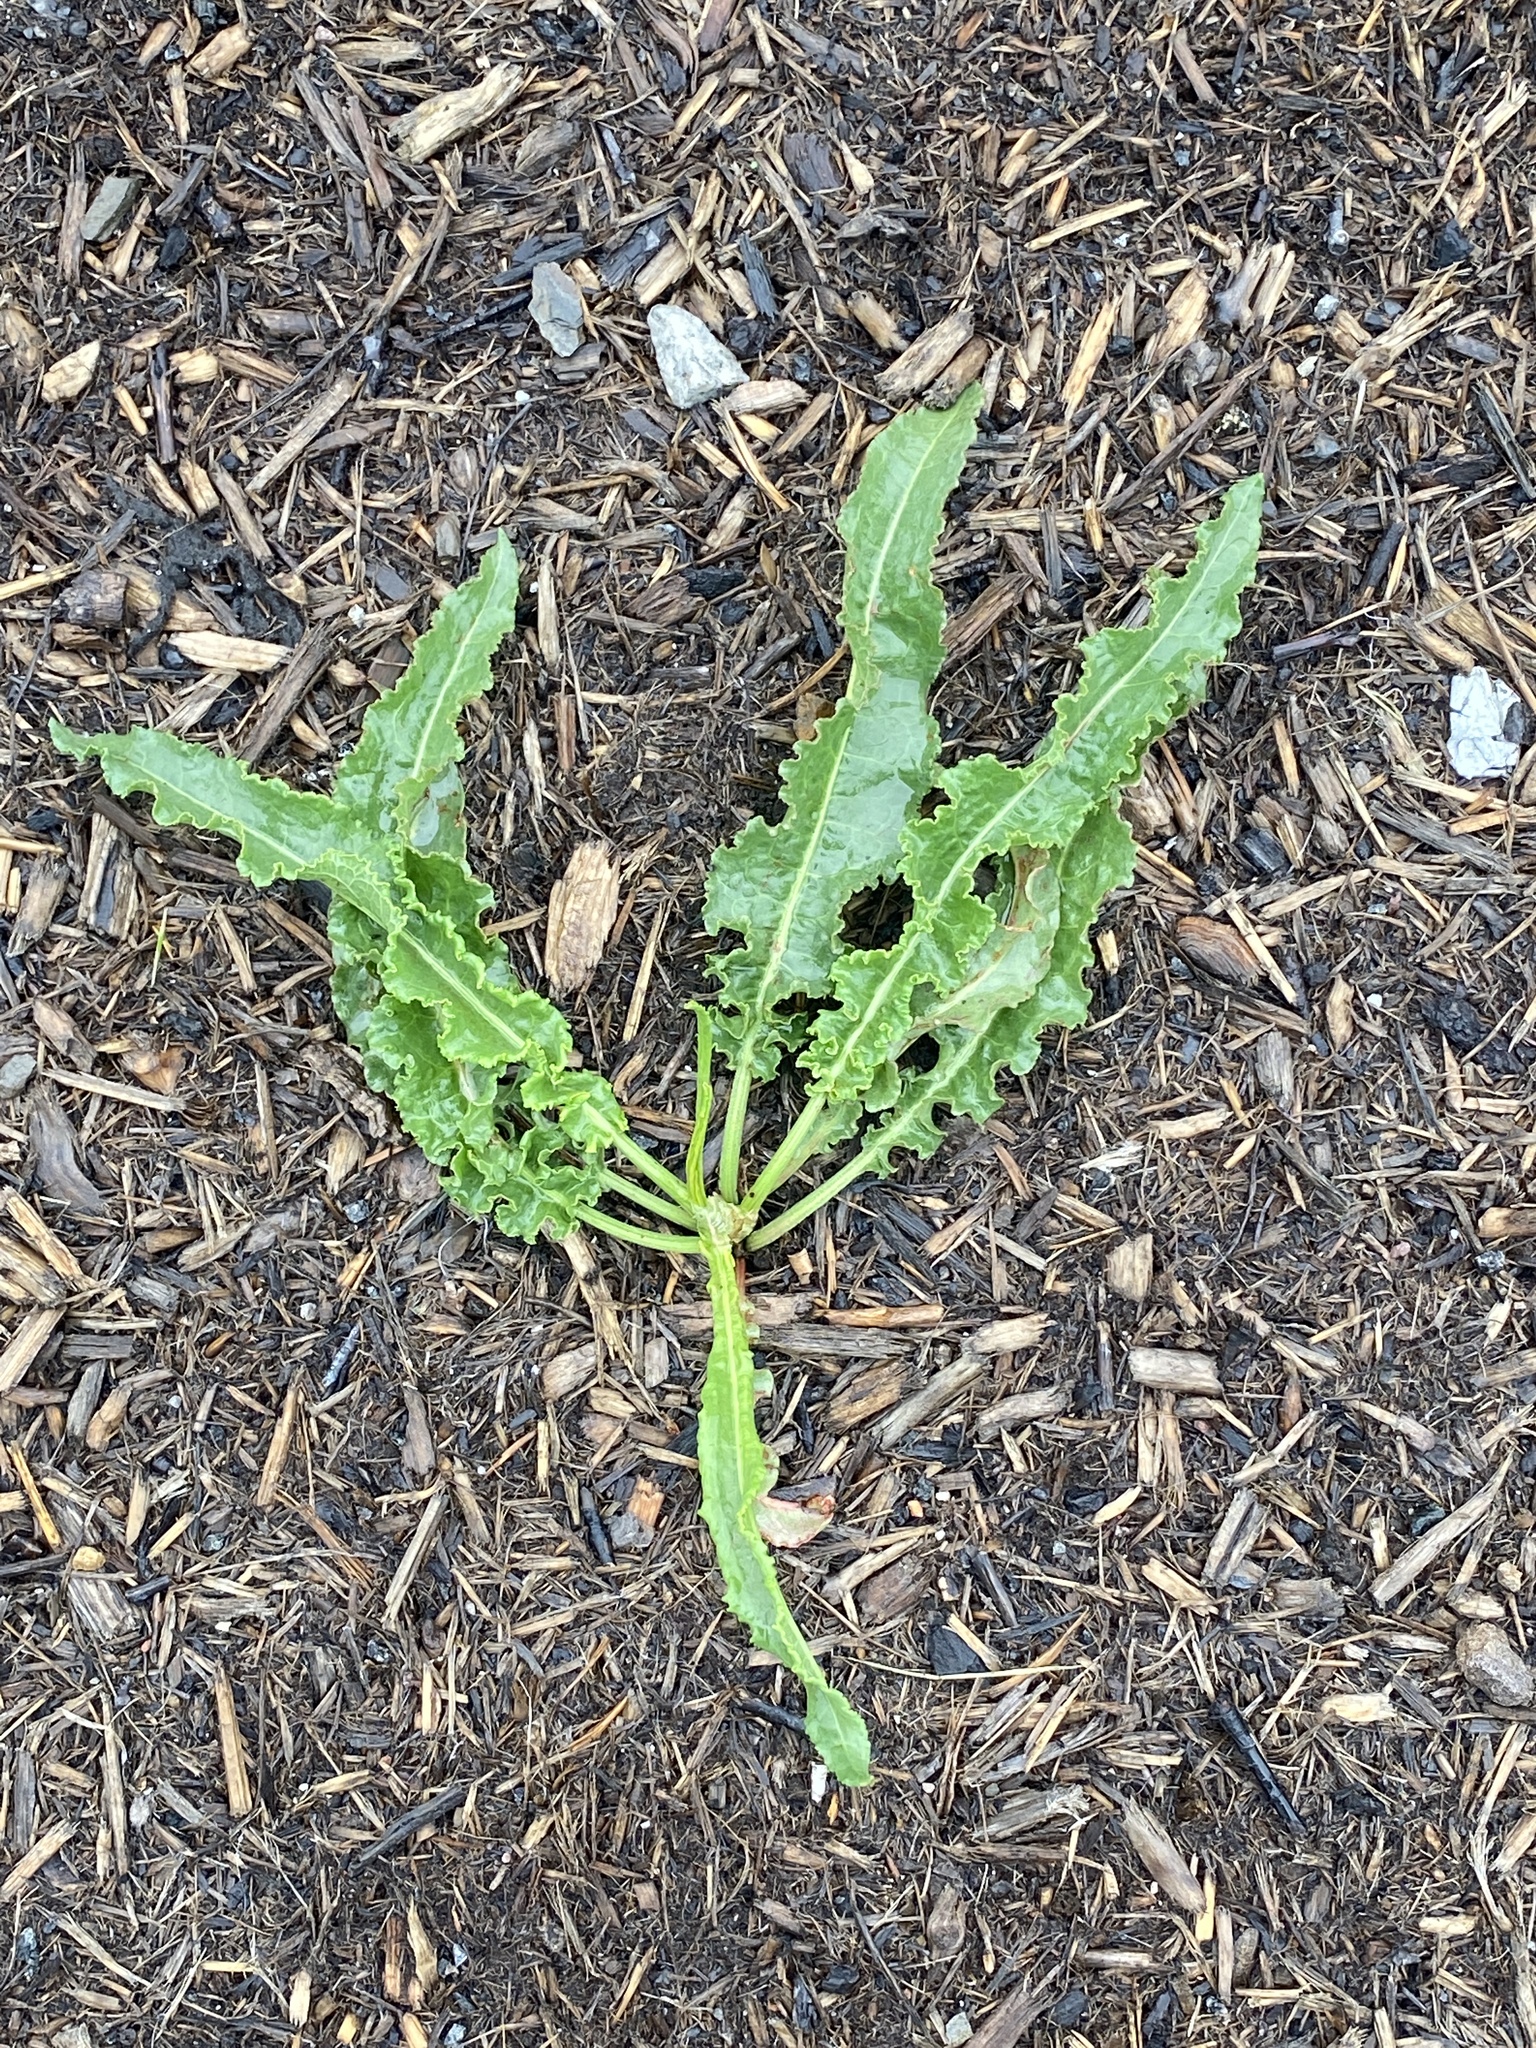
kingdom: Plantae
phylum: Tracheophyta
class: Magnoliopsida
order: Caryophyllales
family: Polygonaceae
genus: Rumex
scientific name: Rumex crispus
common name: Curled dock
